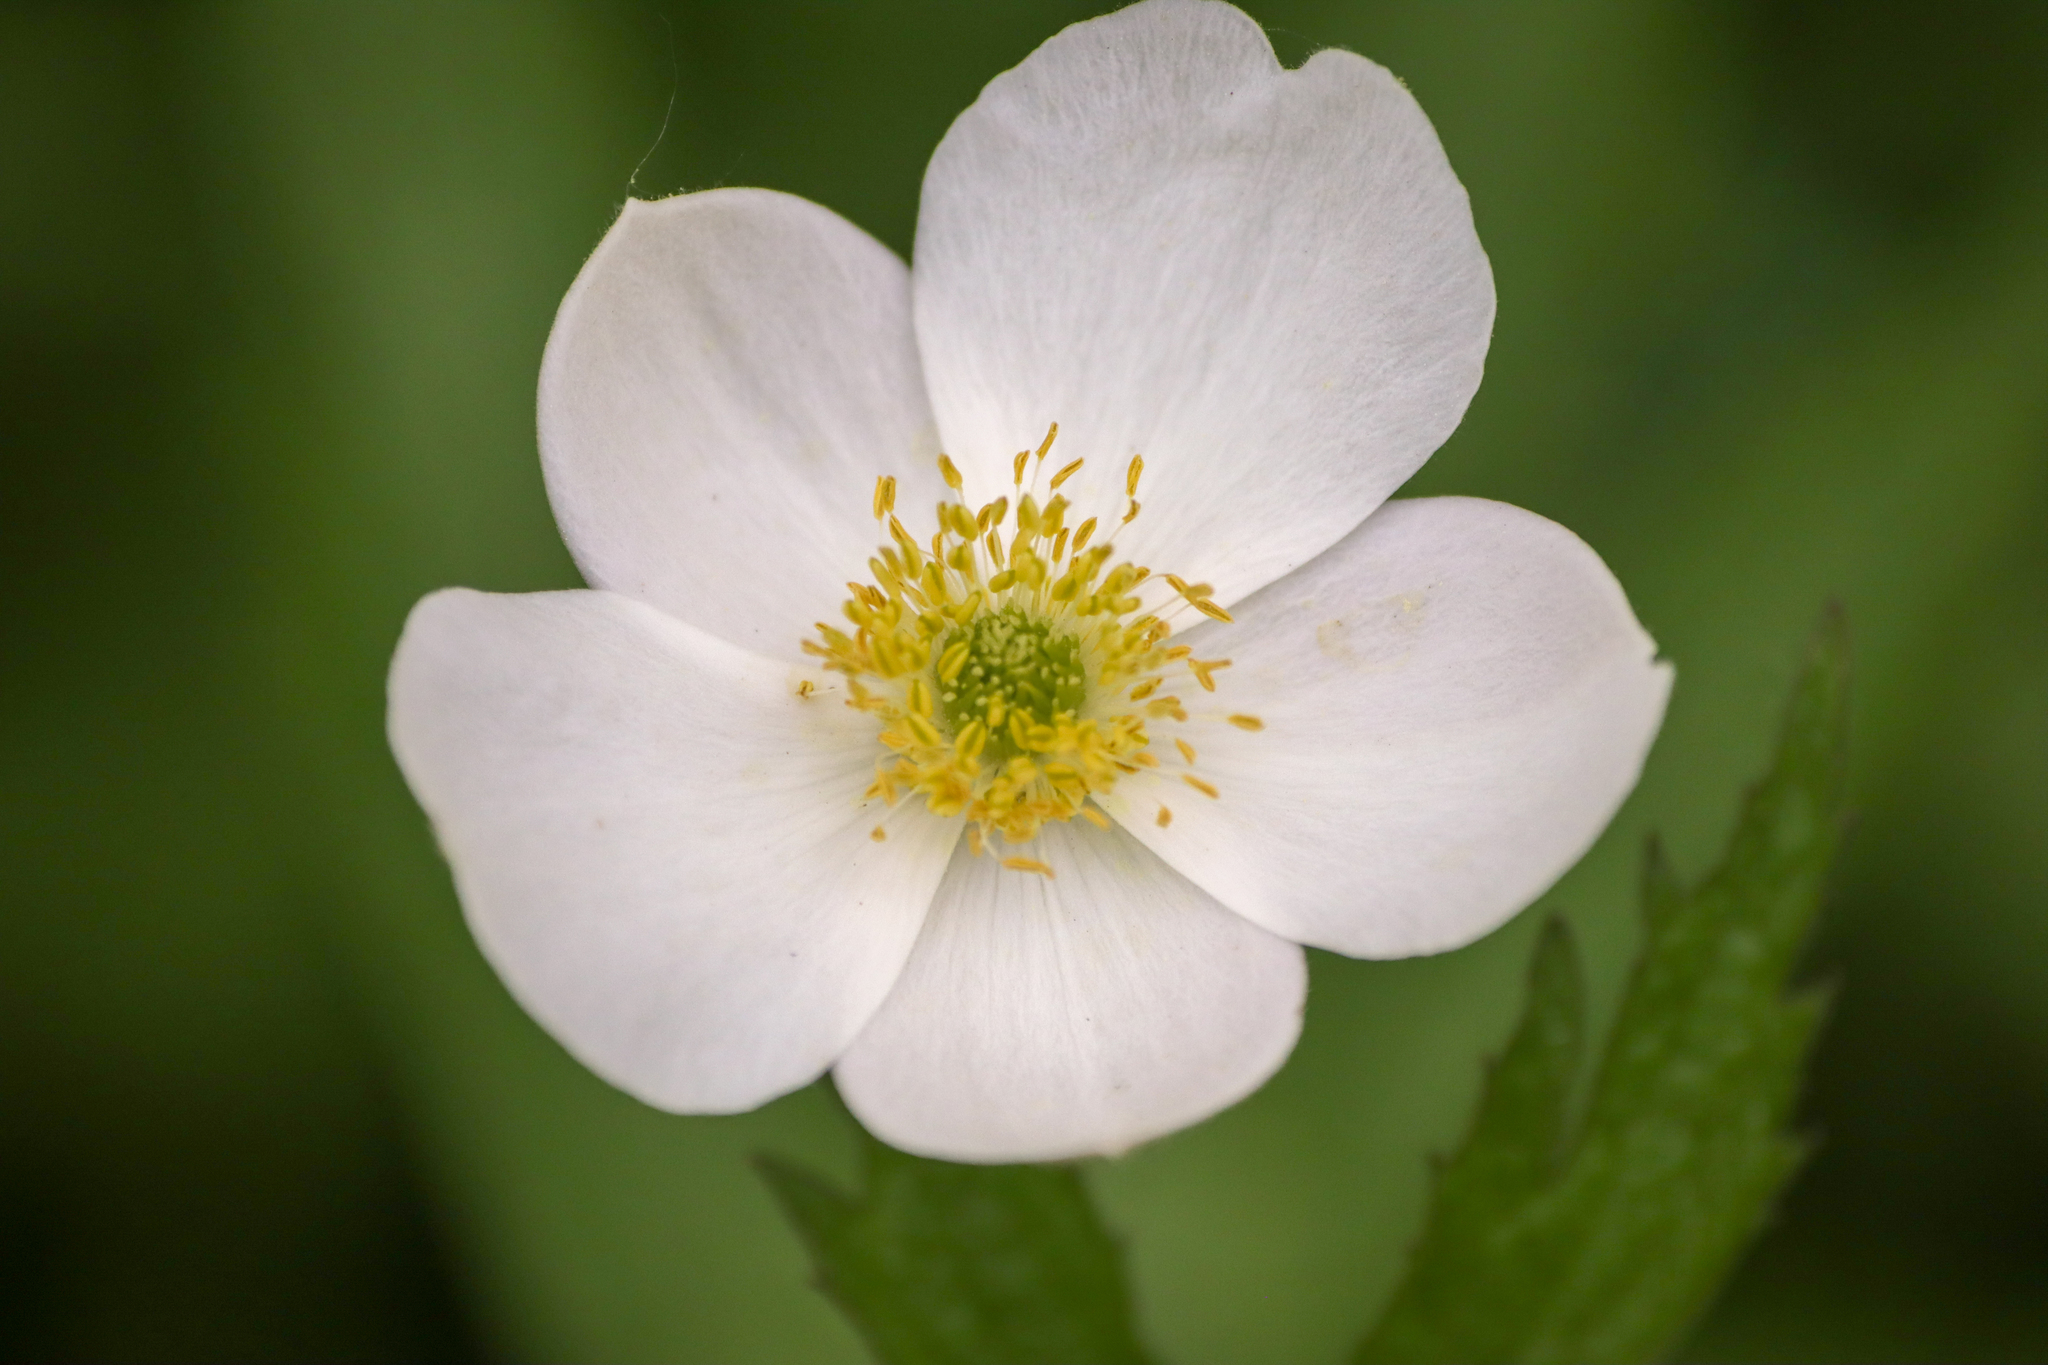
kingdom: Plantae
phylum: Tracheophyta
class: Magnoliopsida
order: Ranunculales
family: Ranunculaceae
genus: Anemonastrum
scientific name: Anemonastrum canadense
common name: Canada anemone
